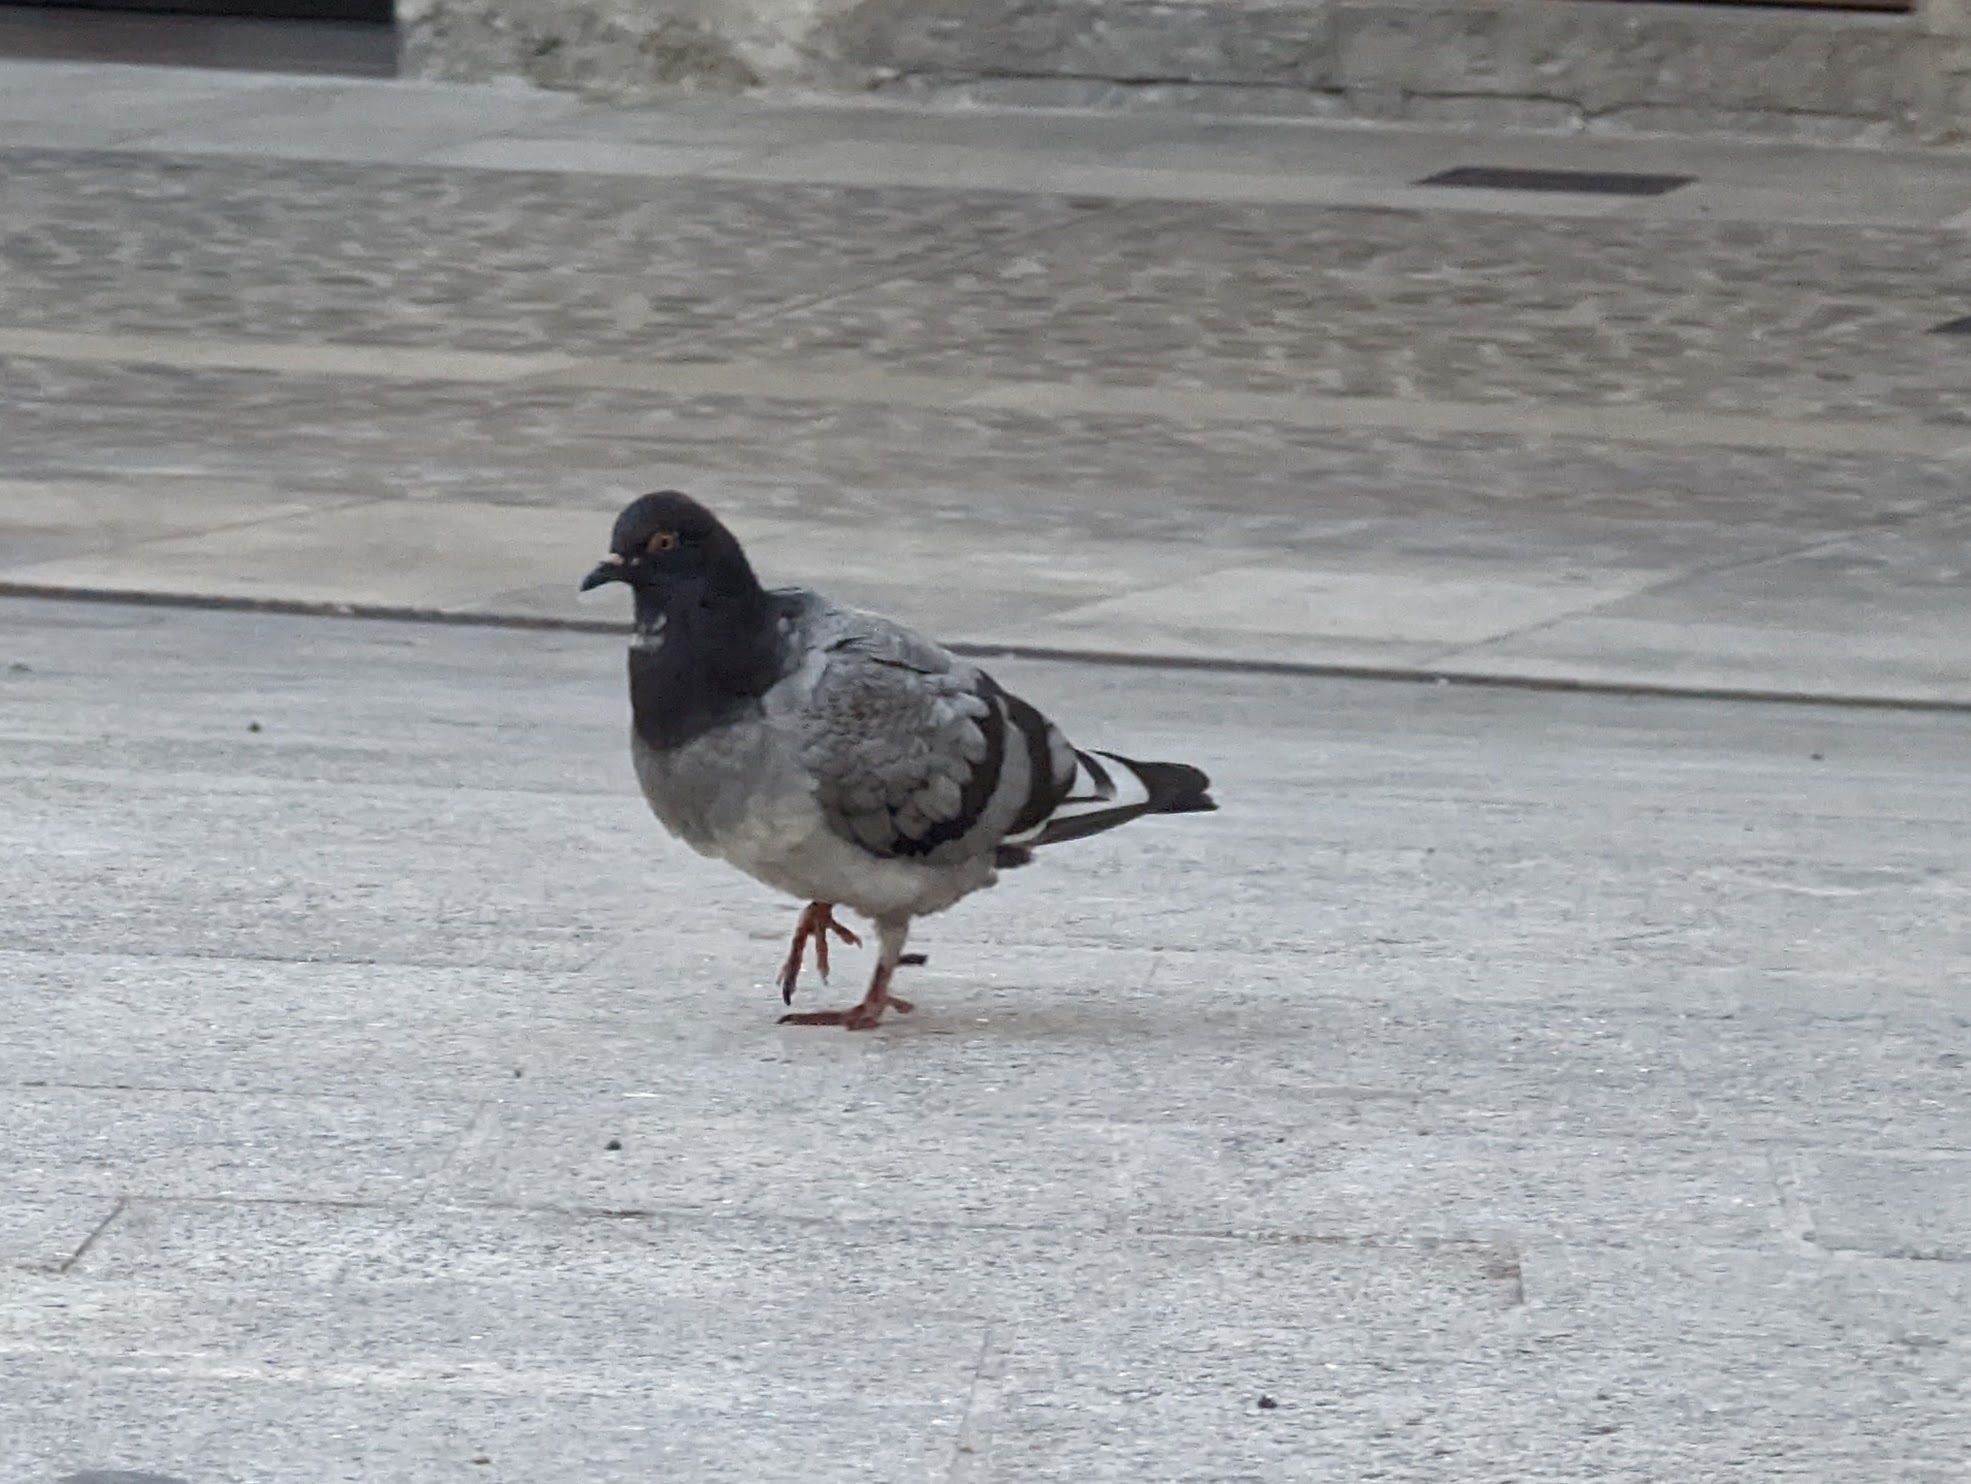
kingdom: Animalia
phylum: Chordata
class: Aves
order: Columbiformes
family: Columbidae
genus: Columba
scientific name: Columba livia
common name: Rock pigeon
